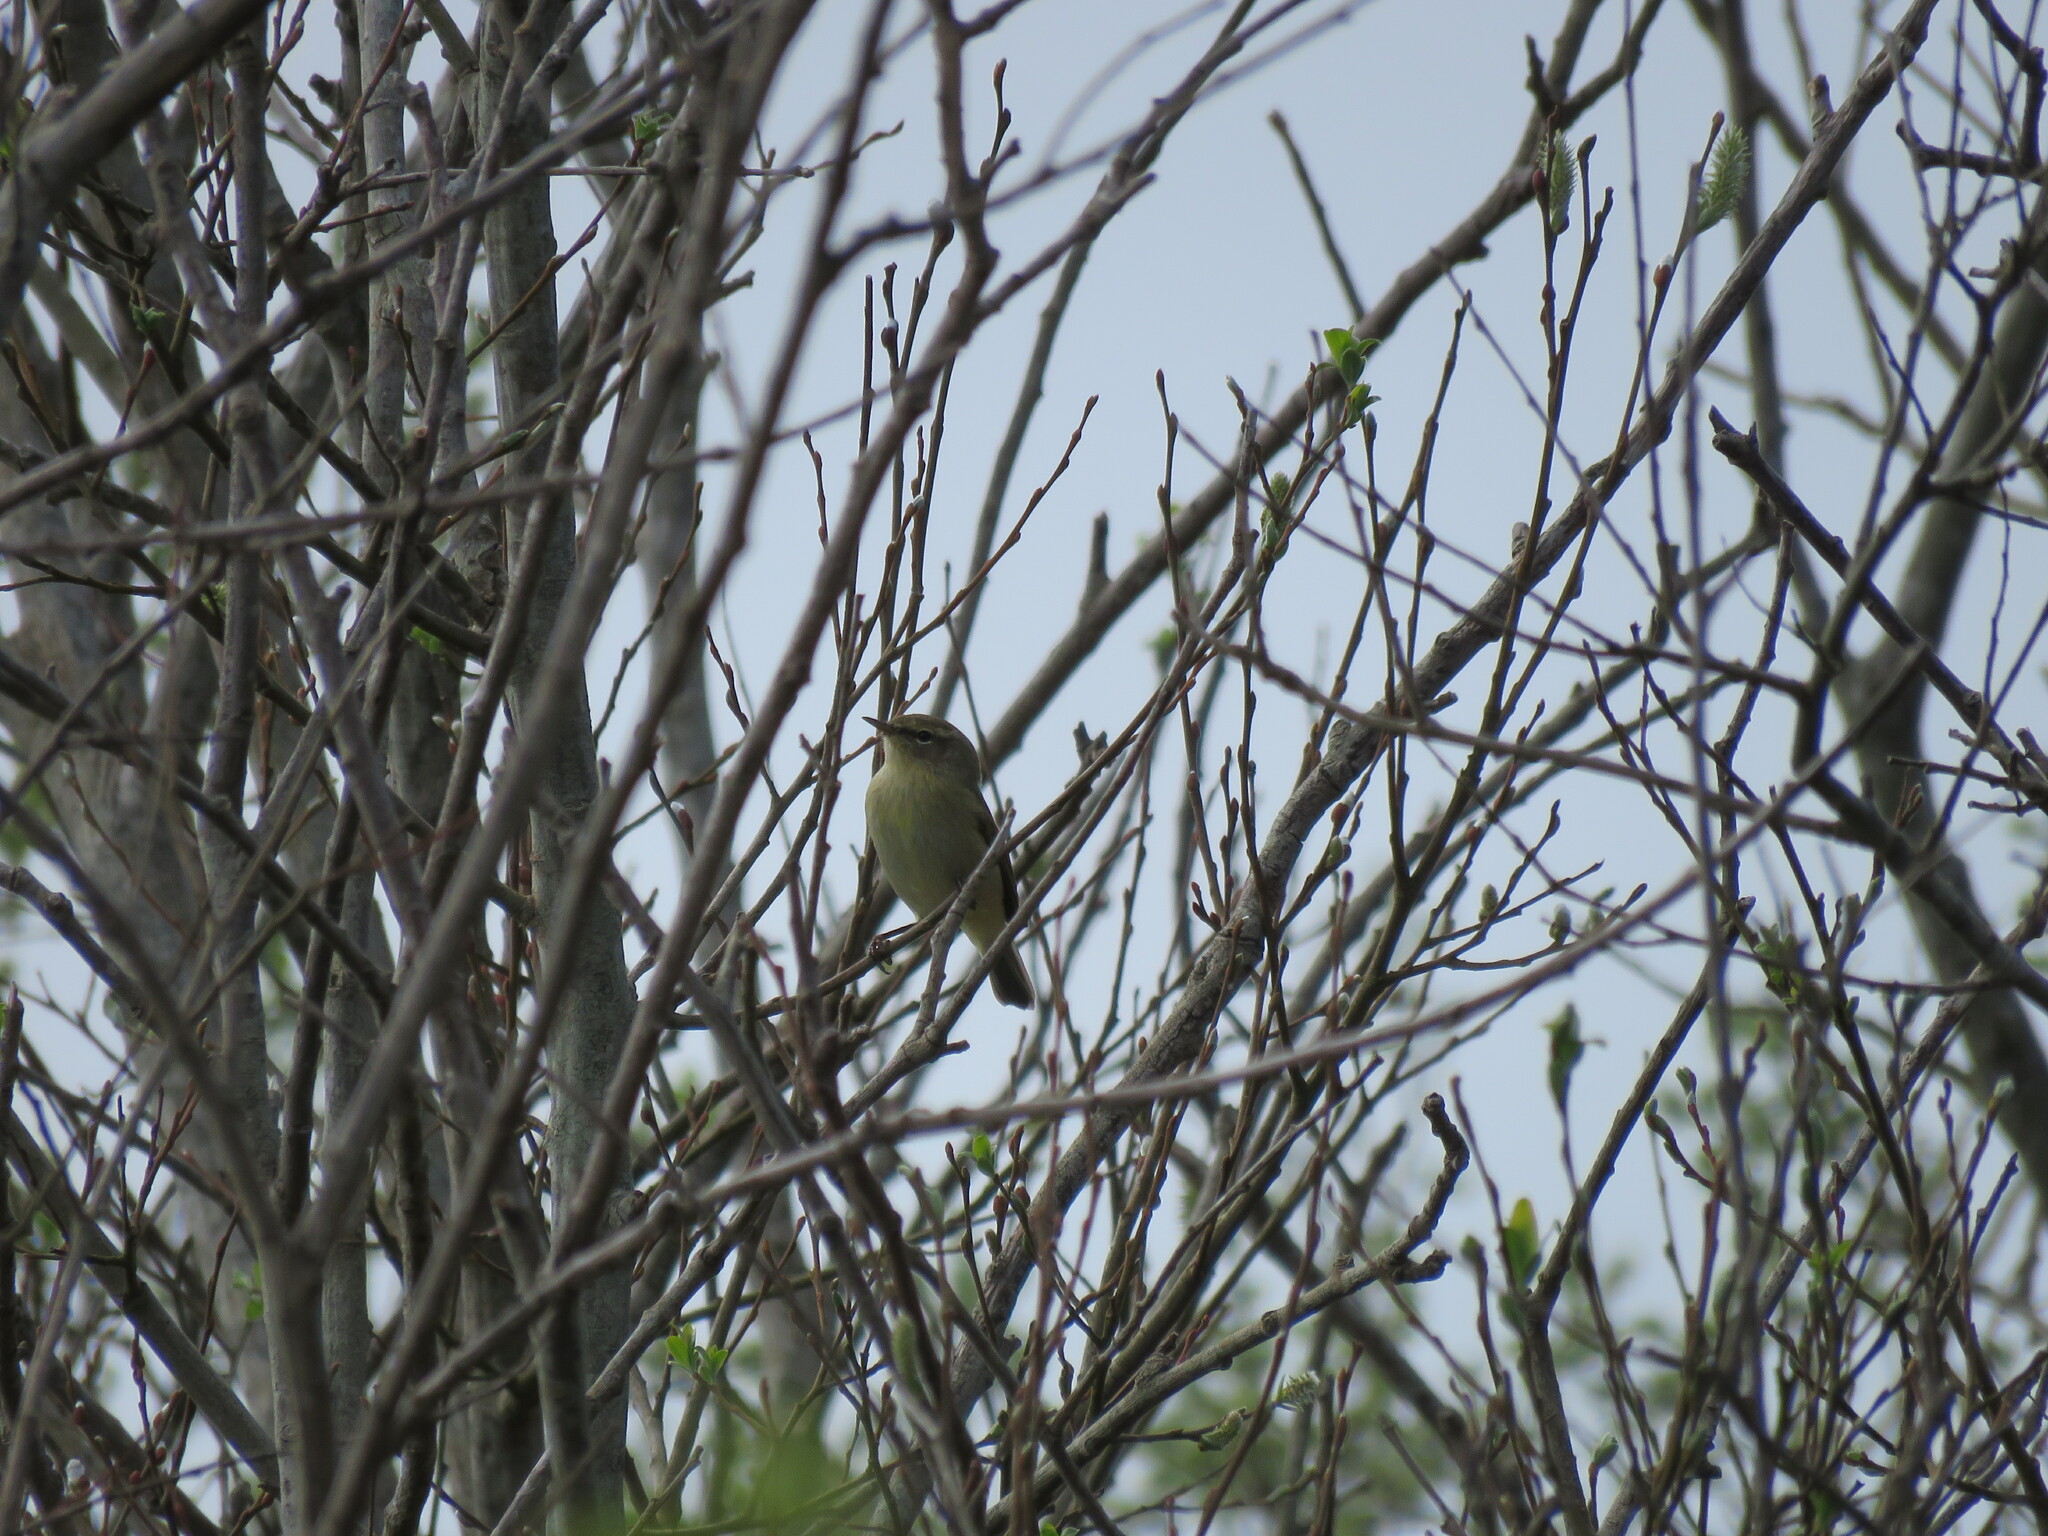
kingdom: Animalia
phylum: Chordata
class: Aves
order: Passeriformes
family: Phylloscopidae
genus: Phylloscopus
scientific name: Phylloscopus collybita
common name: Common chiffchaff
